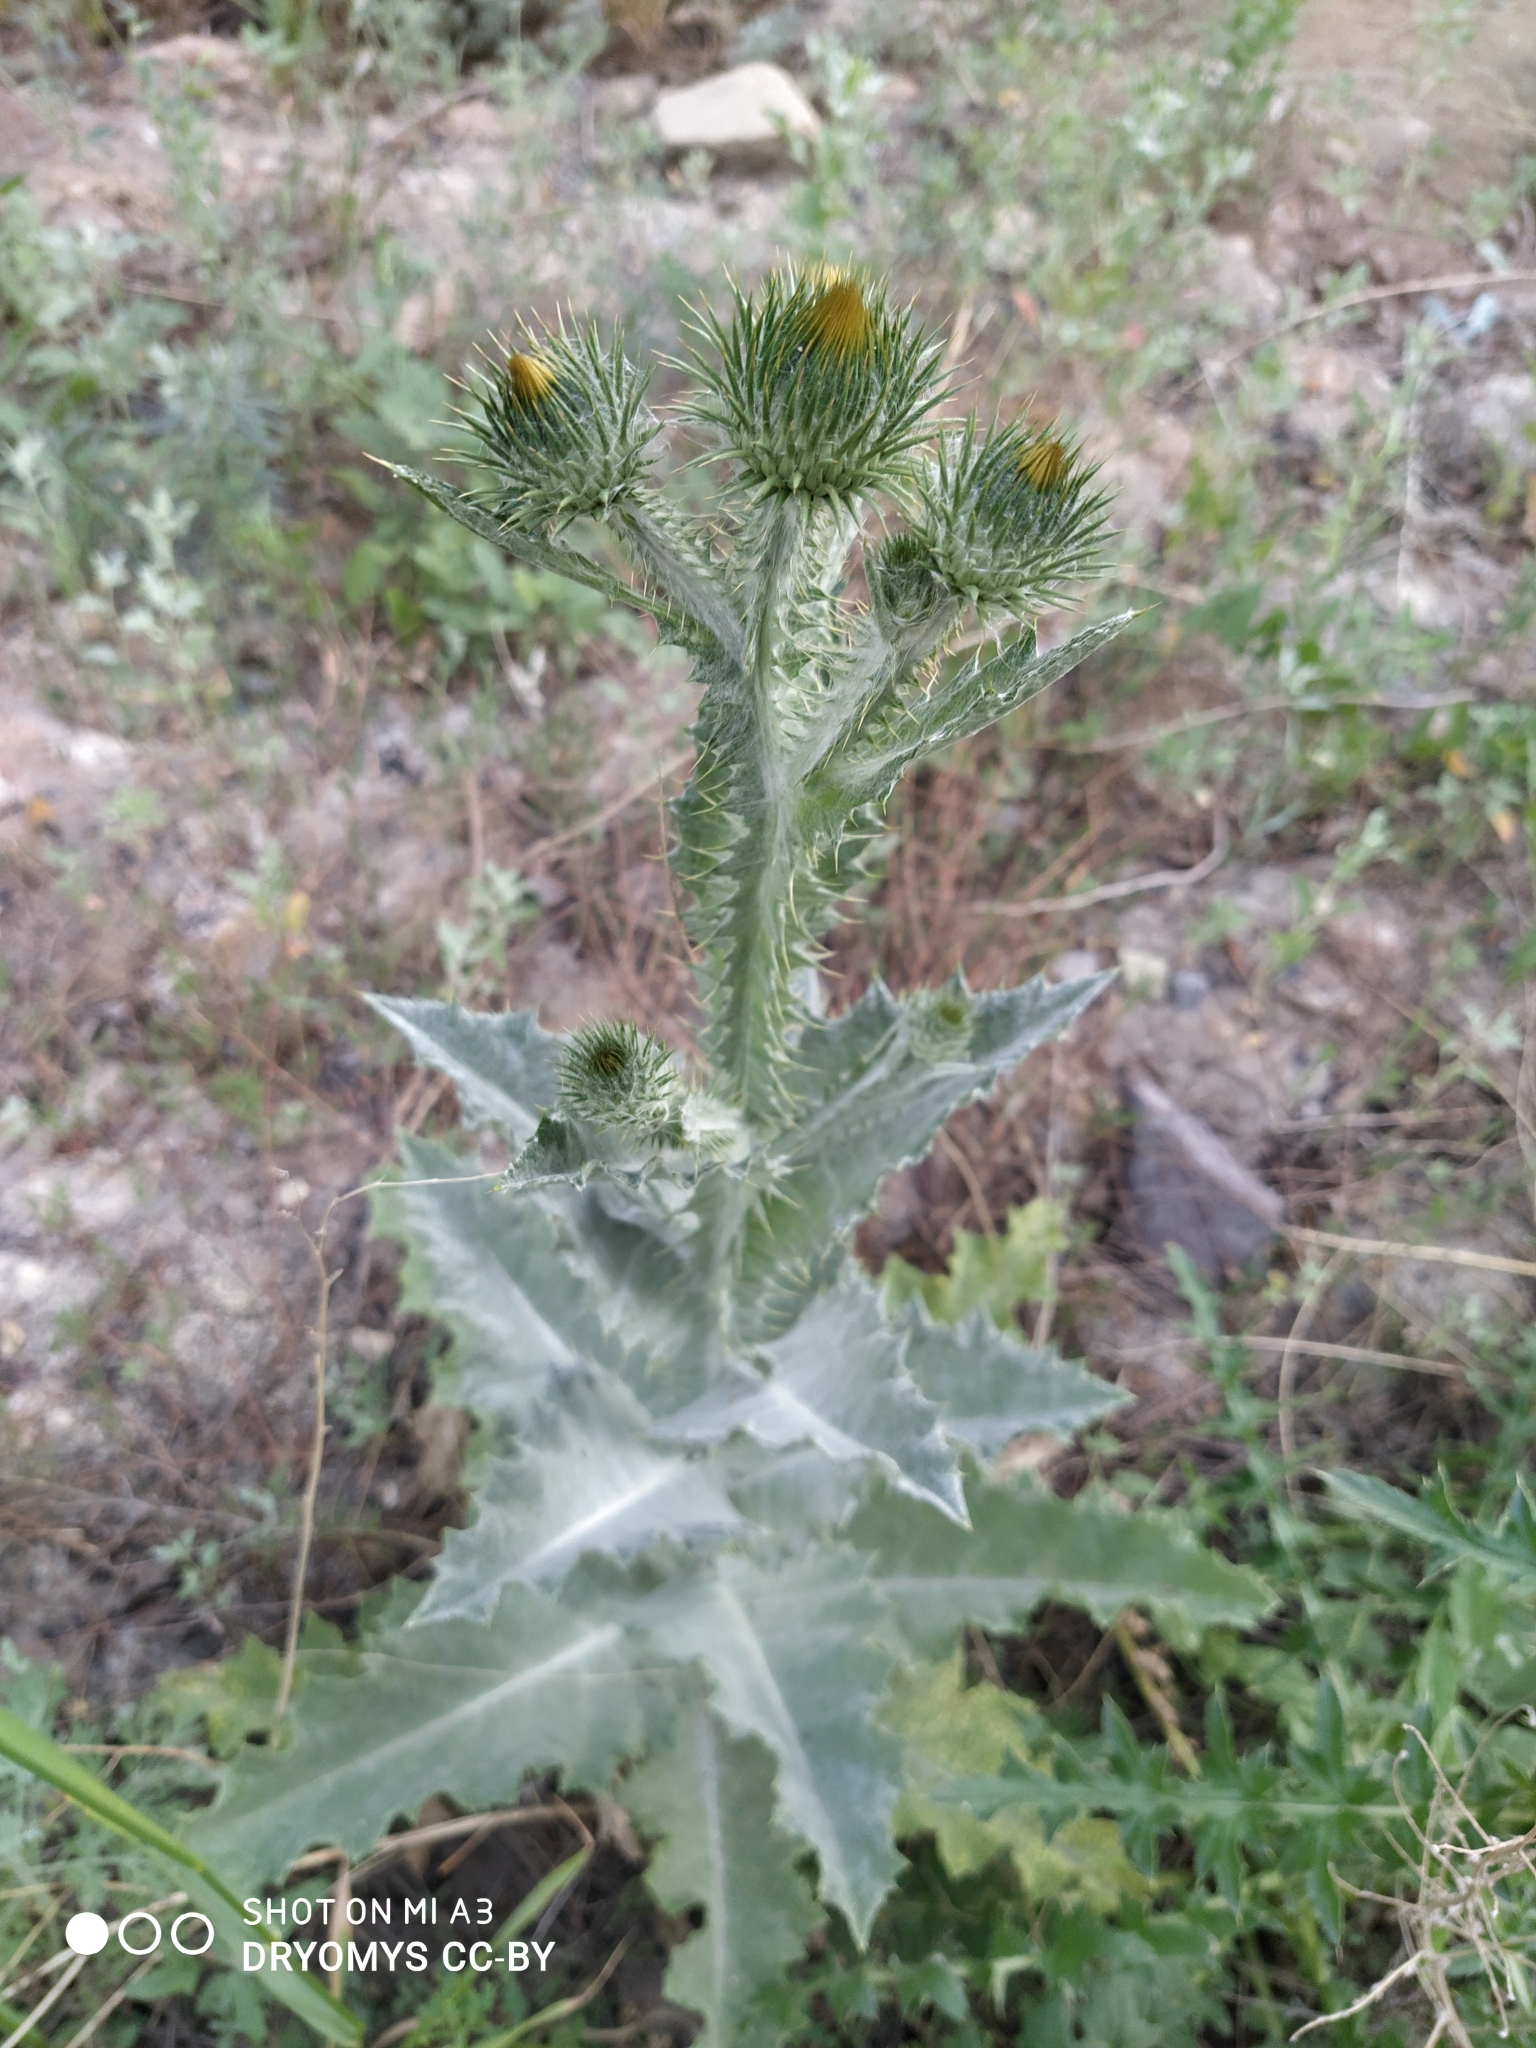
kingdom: Plantae
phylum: Tracheophyta
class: Magnoliopsida
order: Asterales
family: Asteraceae
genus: Onopordum
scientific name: Onopordum acanthium
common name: Scotch thistle
